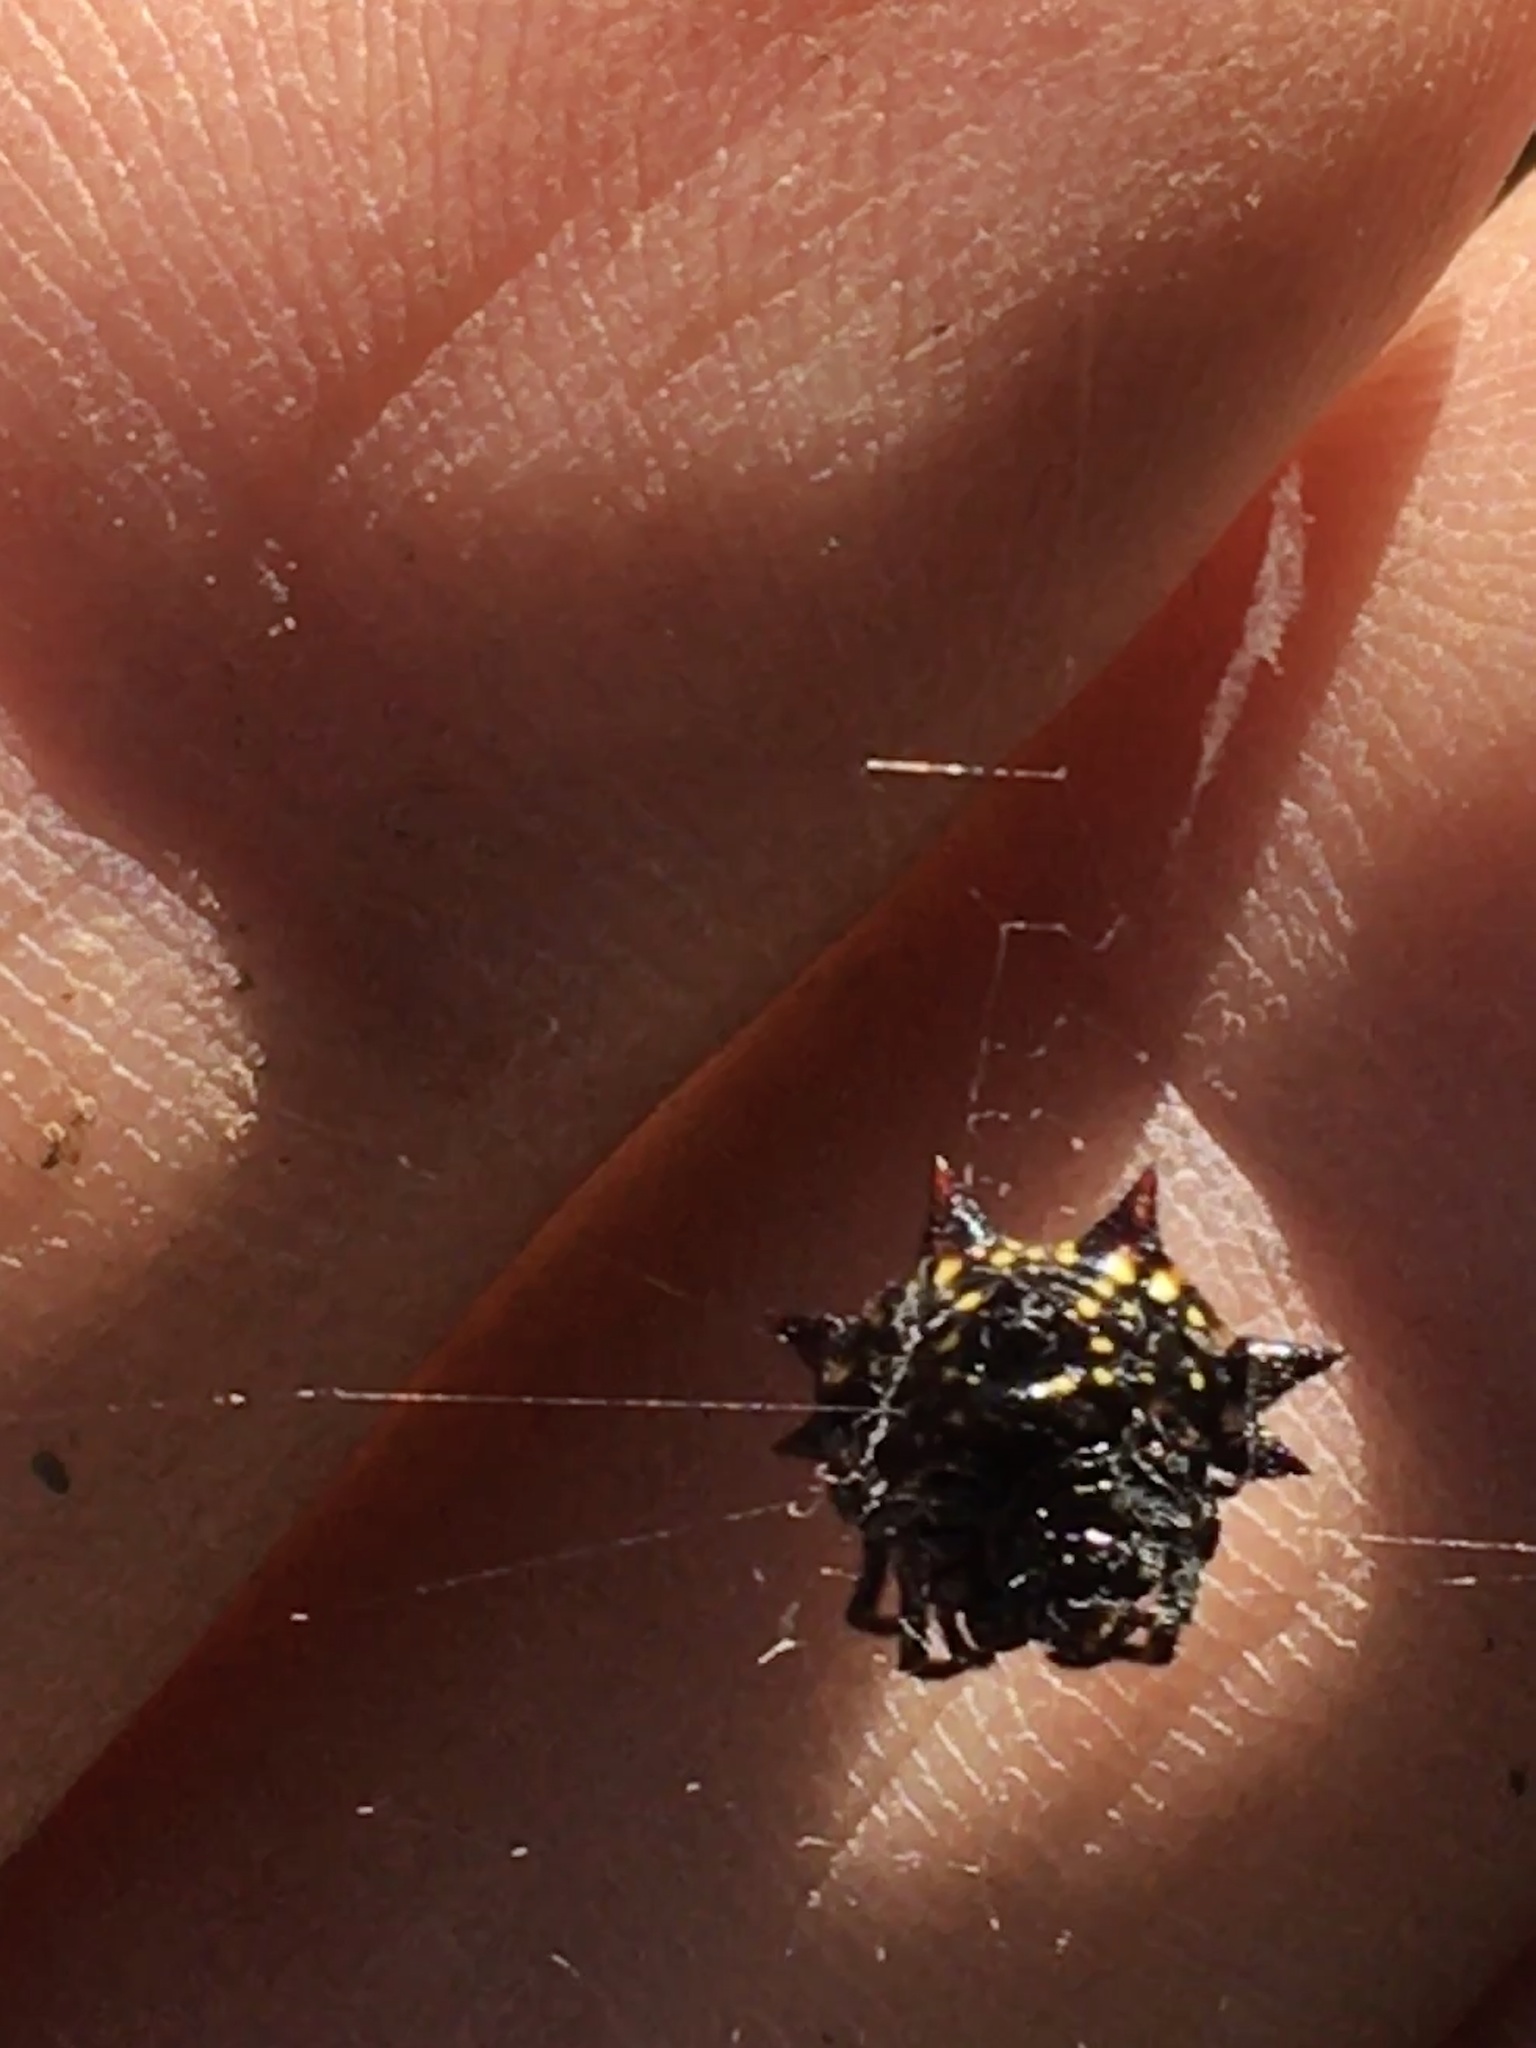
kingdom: Animalia
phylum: Arthropoda
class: Arachnida
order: Araneae
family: Araneidae
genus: Gasteracantha
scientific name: Gasteracantha cancriformis
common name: Orb weavers
